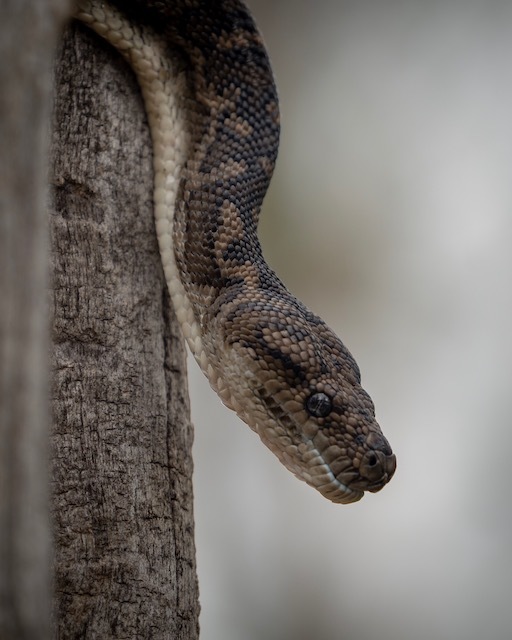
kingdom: Animalia
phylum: Chordata
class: Squamata
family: Pythonidae
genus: Morelia
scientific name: Morelia imbricata
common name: Carpet python
